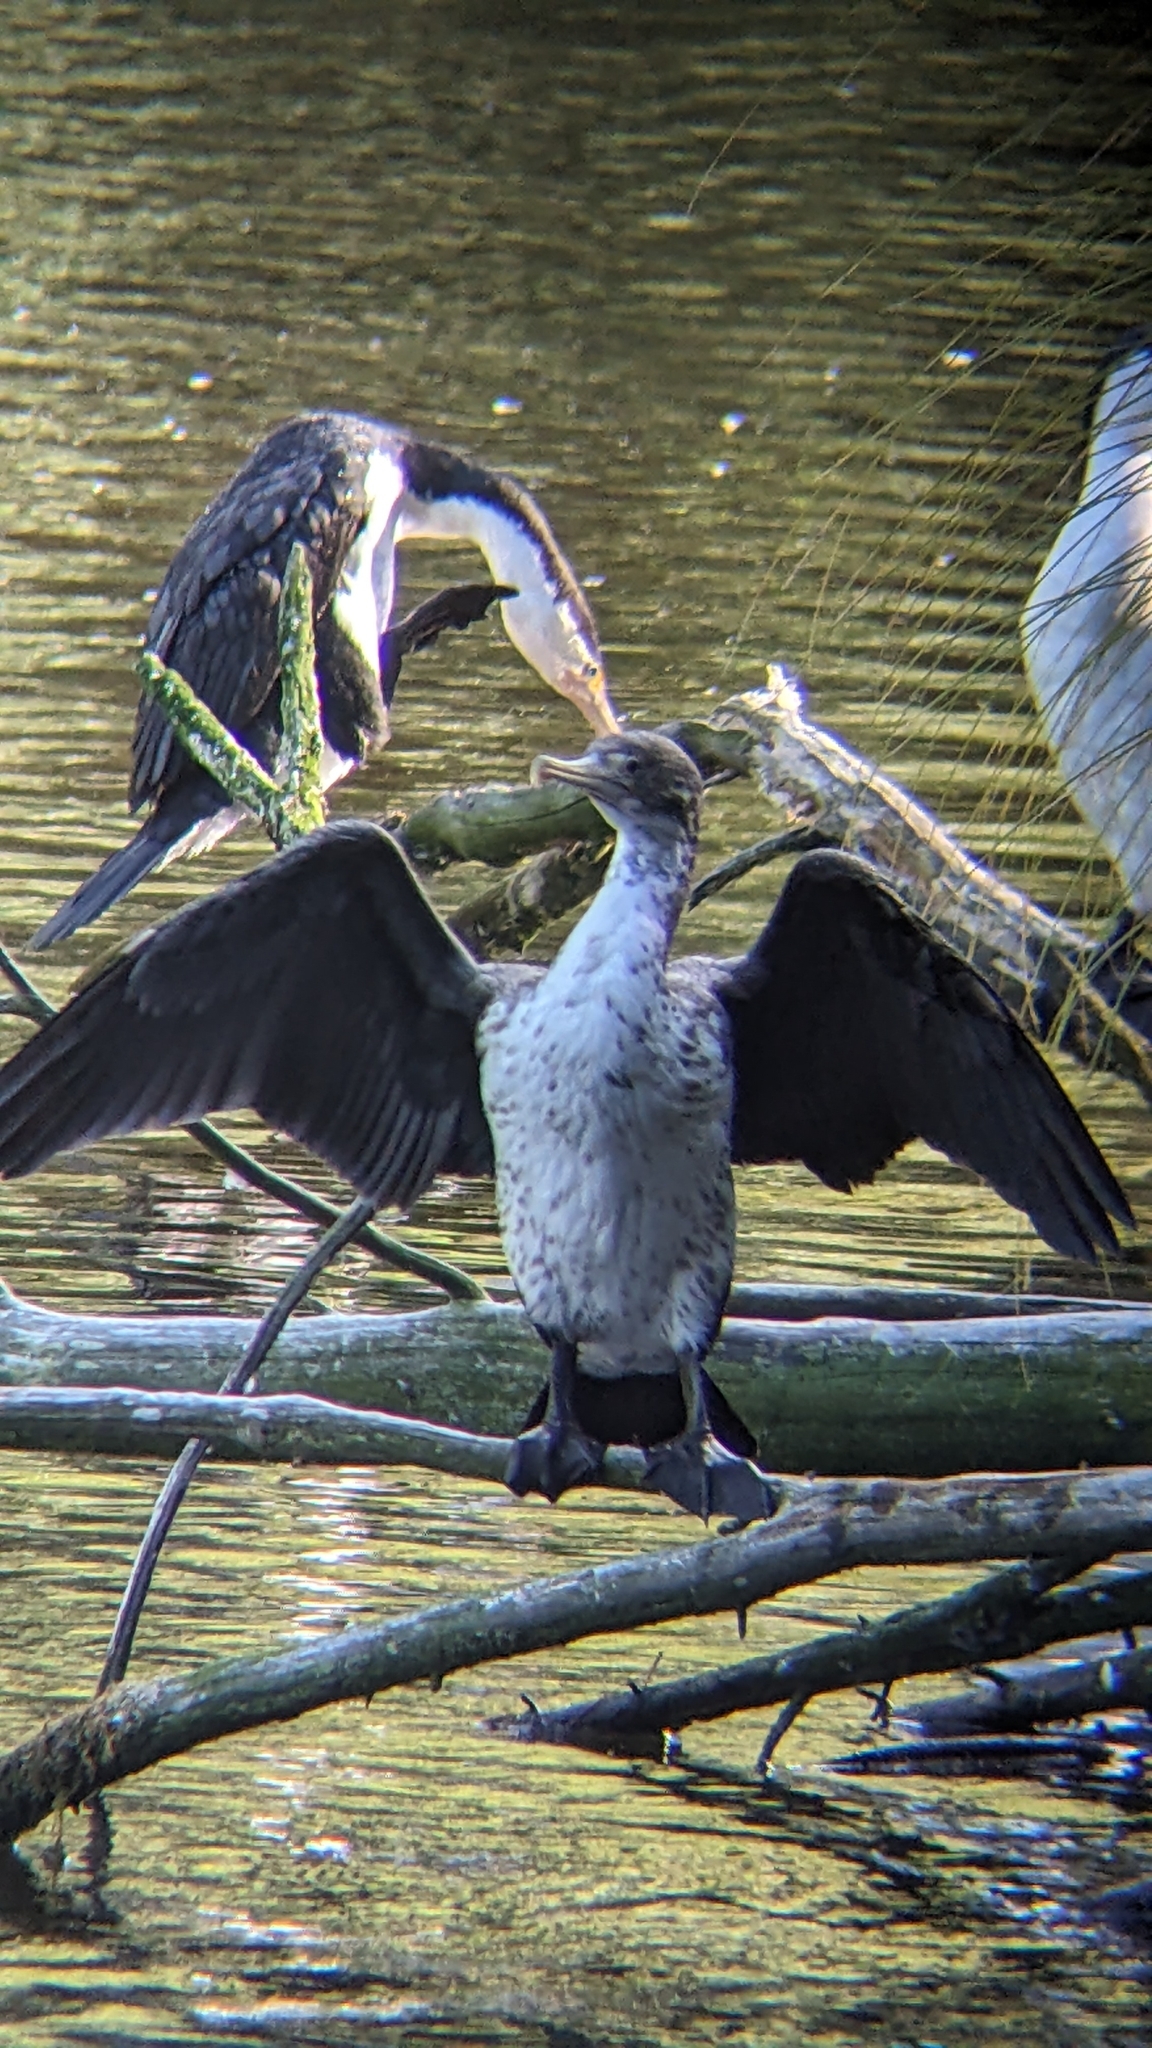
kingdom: Animalia
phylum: Chordata
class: Aves
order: Suliformes
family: Phalacrocoracidae
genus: Phalacrocorax
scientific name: Phalacrocorax varius
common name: Pied cormorant
